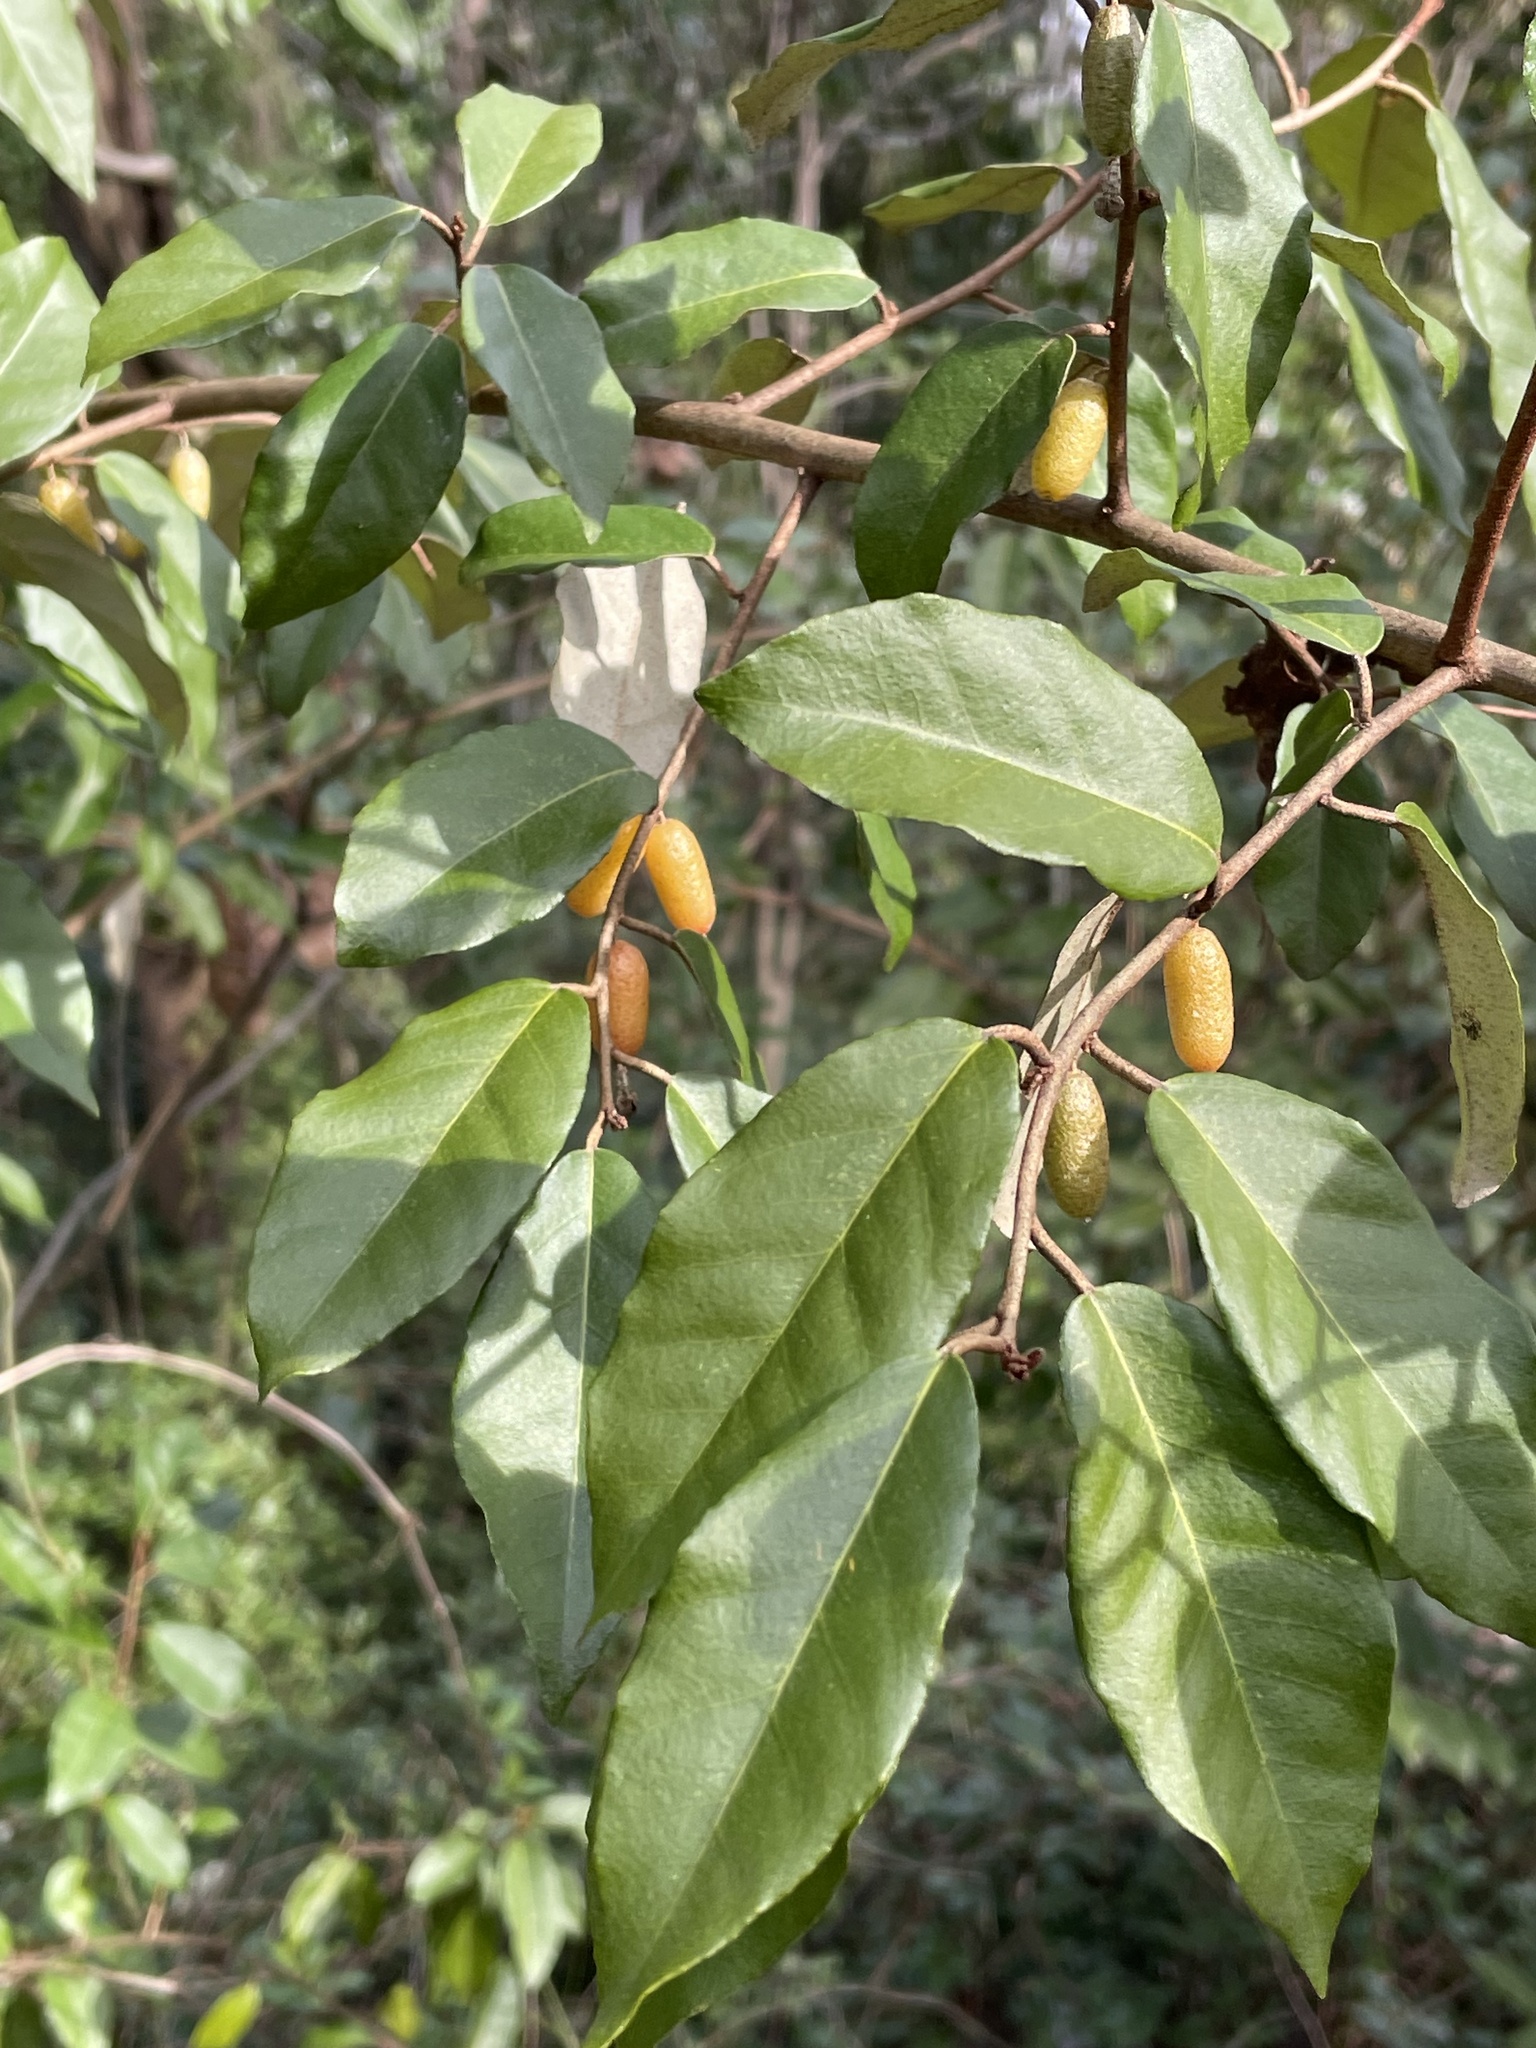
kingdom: Plantae
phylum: Tracheophyta
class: Magnoliopsida
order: Rosales
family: Elaeagnaceae
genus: Elaeagnus
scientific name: Elaeagnus pungens
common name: Spiny oleaster
